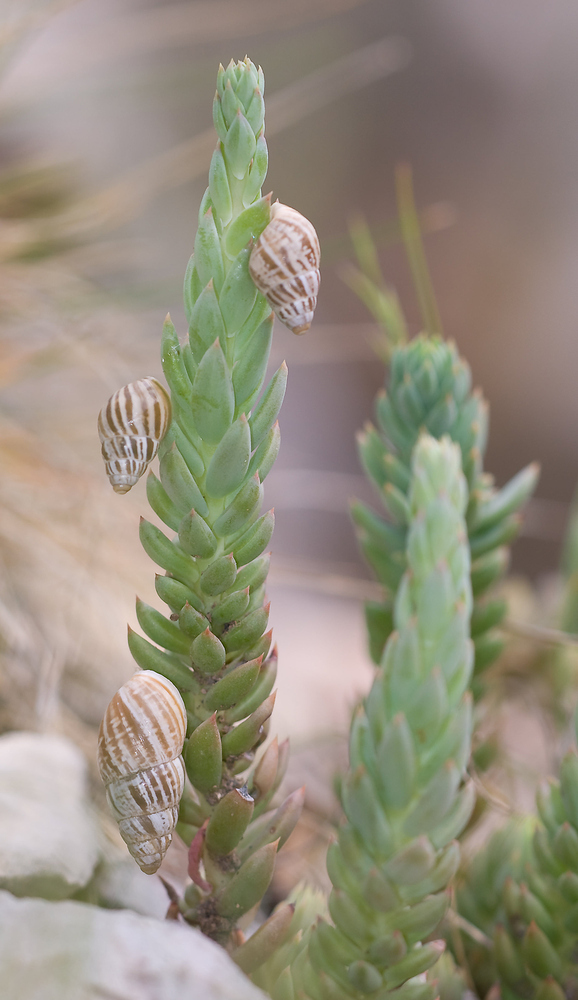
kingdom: Animalia
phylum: Mollusca
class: Gastropoda
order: Stylommatophora
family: Enidae
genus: Zebrina
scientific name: Zebrina detrita
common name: Large bulin
